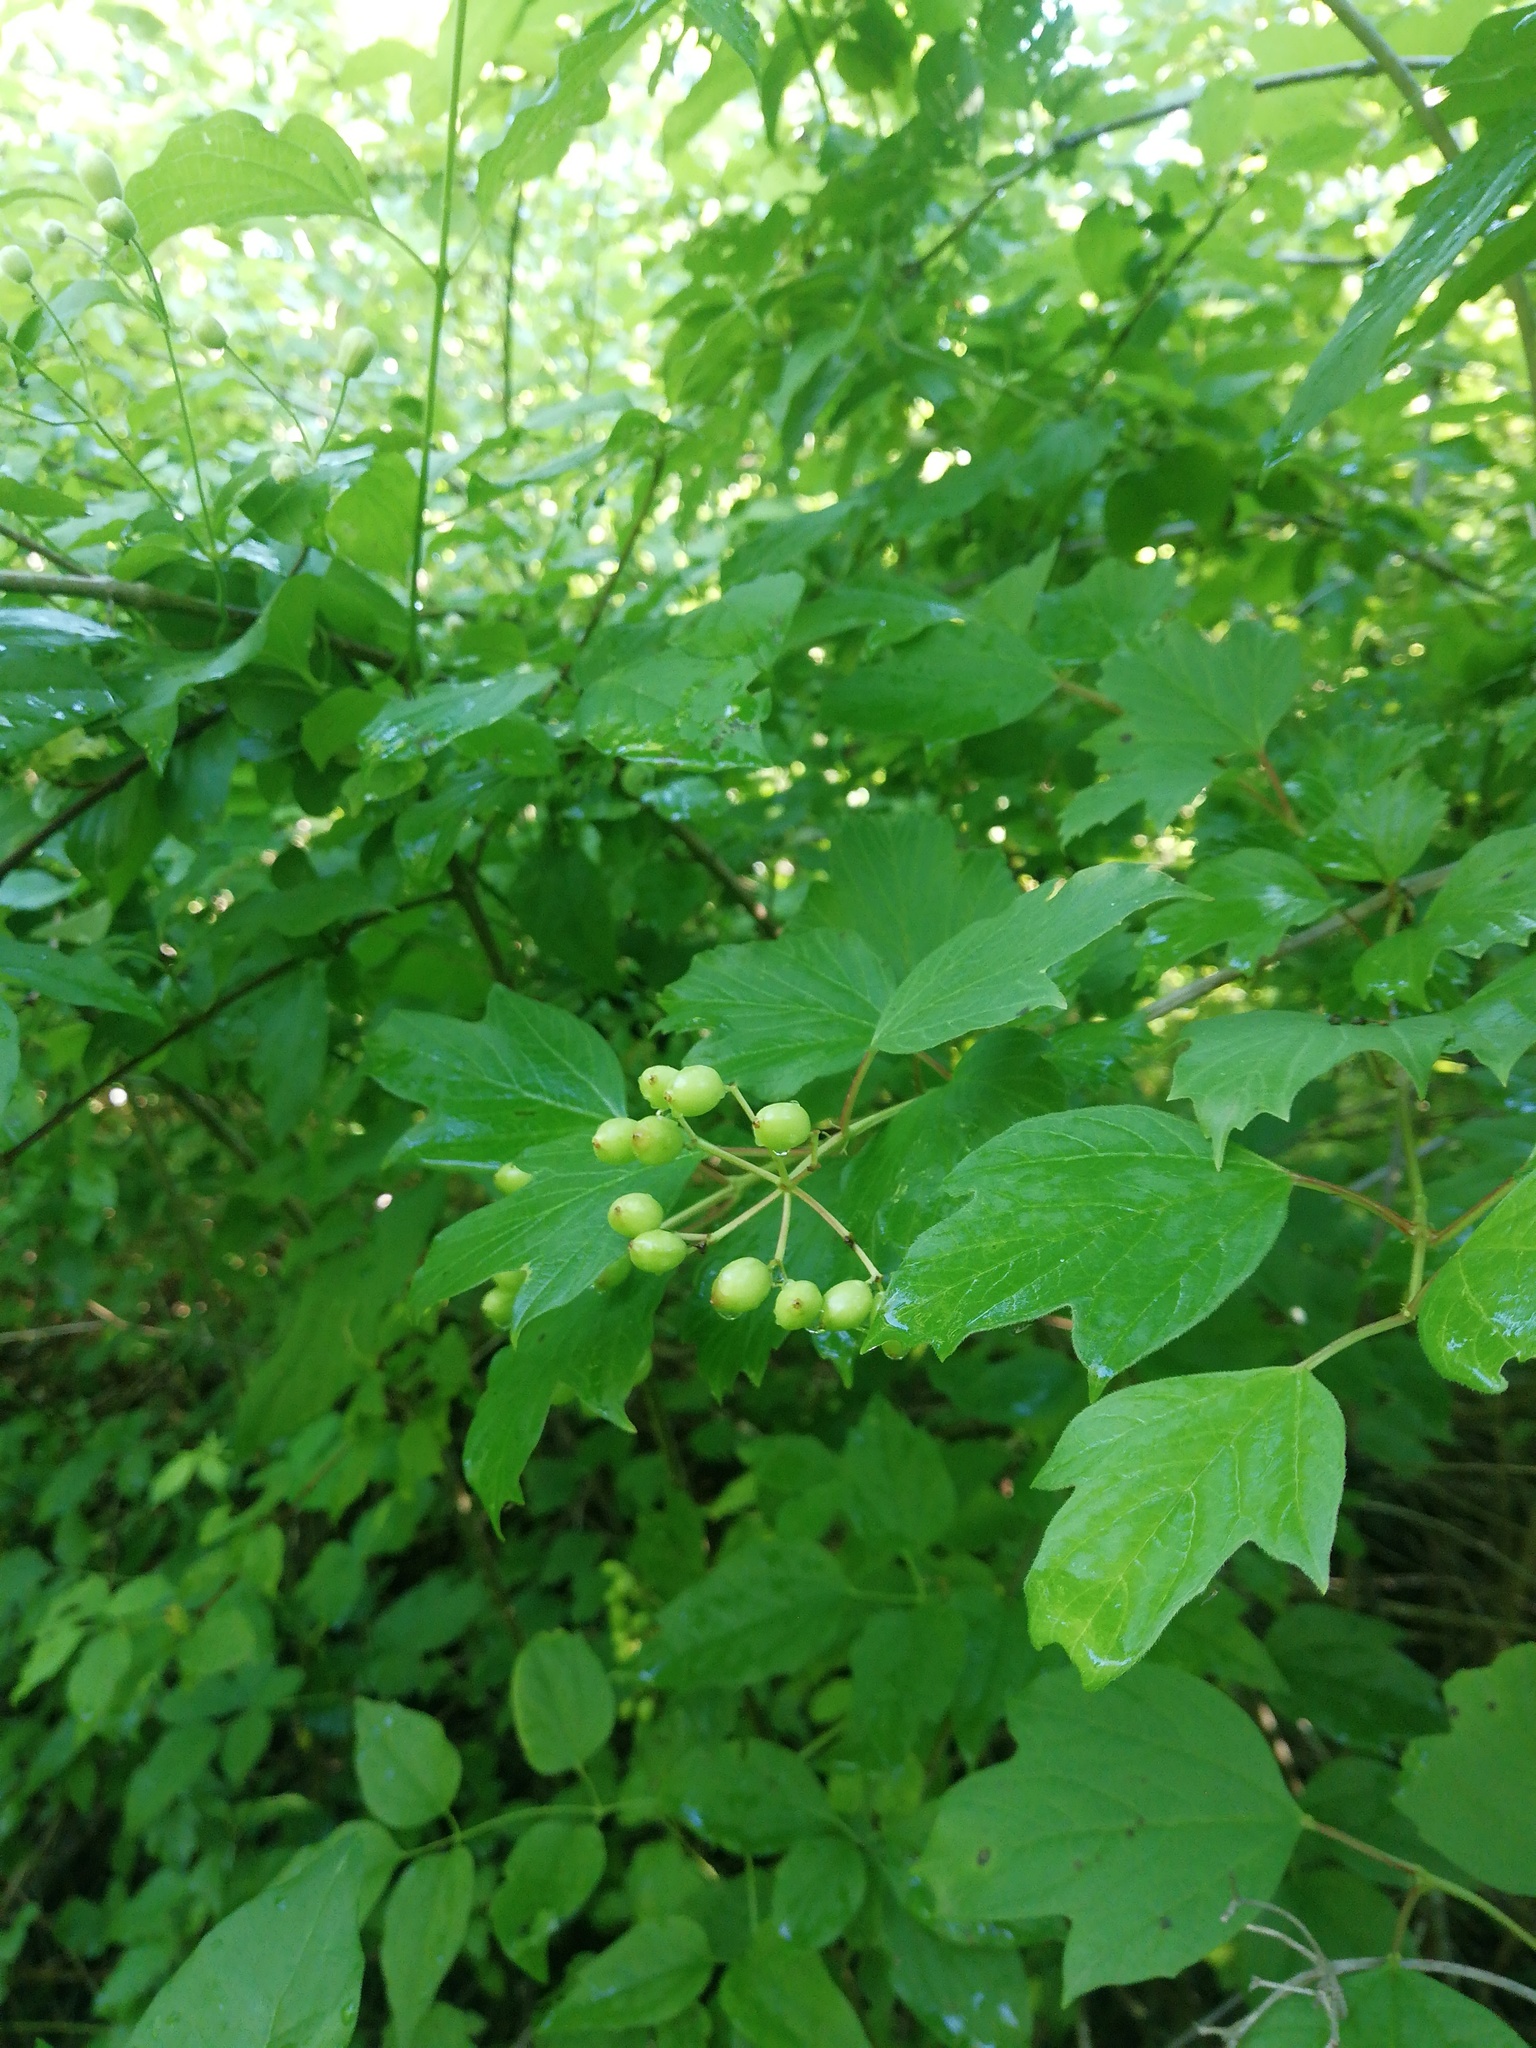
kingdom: Plantae
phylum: Tracheophyta
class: Magnoliopsida
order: Dipsacales
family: Viburnaceae
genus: Viburnum
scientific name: Viburnum opulus
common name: Guelder-rose
